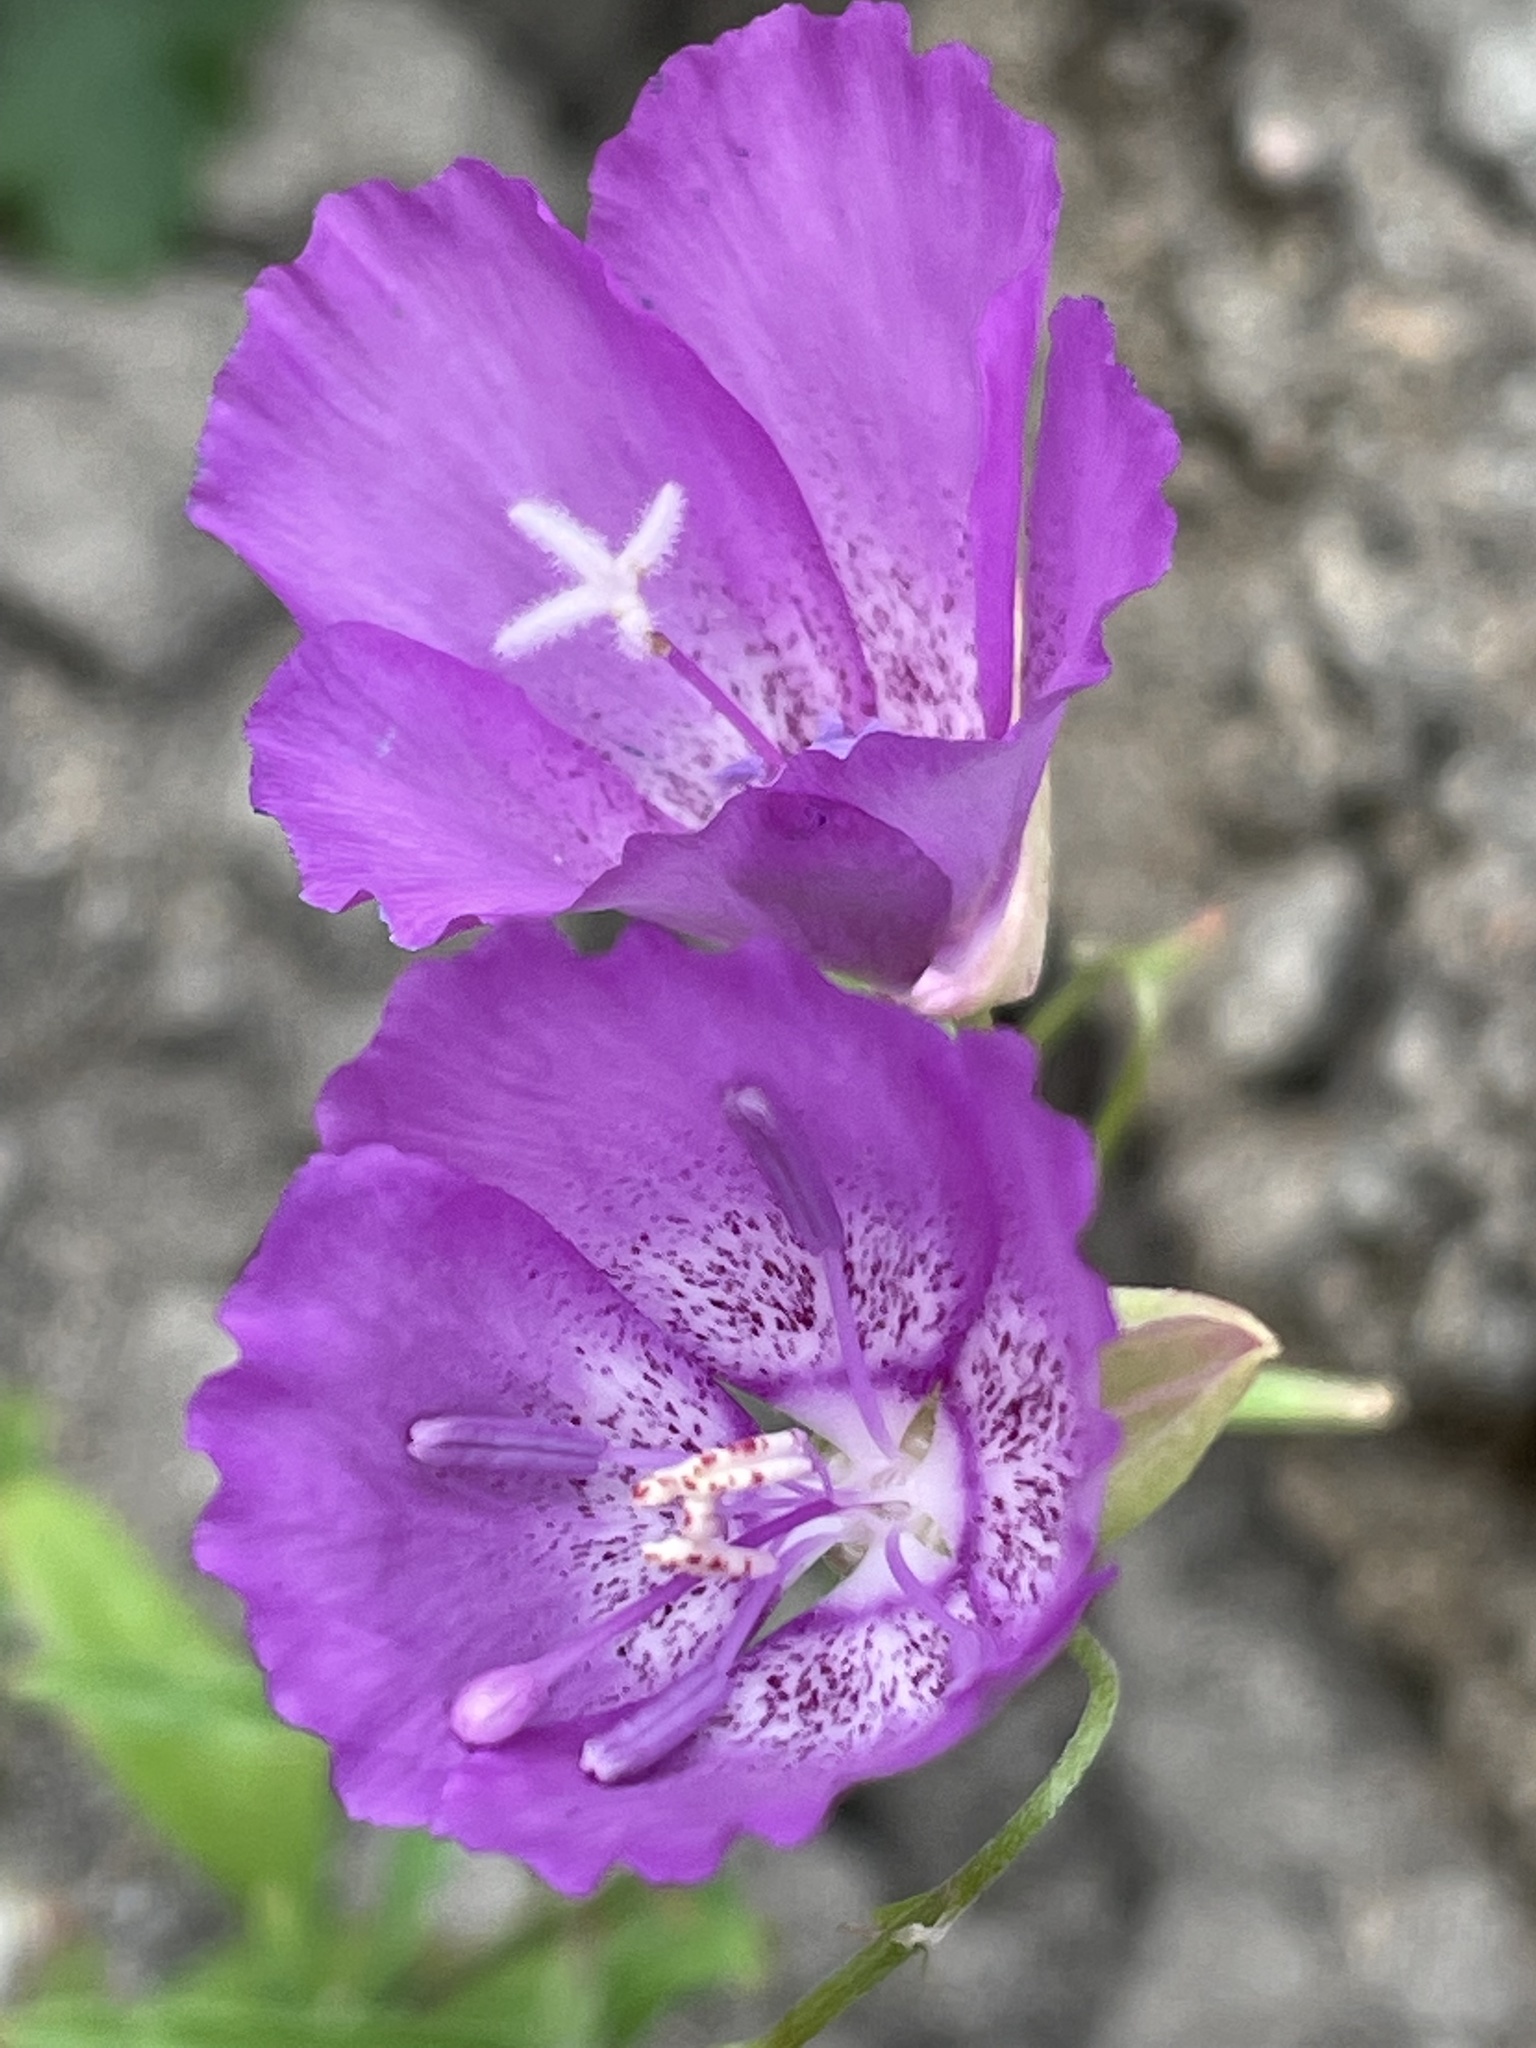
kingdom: Plantae
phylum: Tracheophyta
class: Magnoliopsida
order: Myrtales
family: Onagraceae
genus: Clarkia
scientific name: Clarkia lewisii
